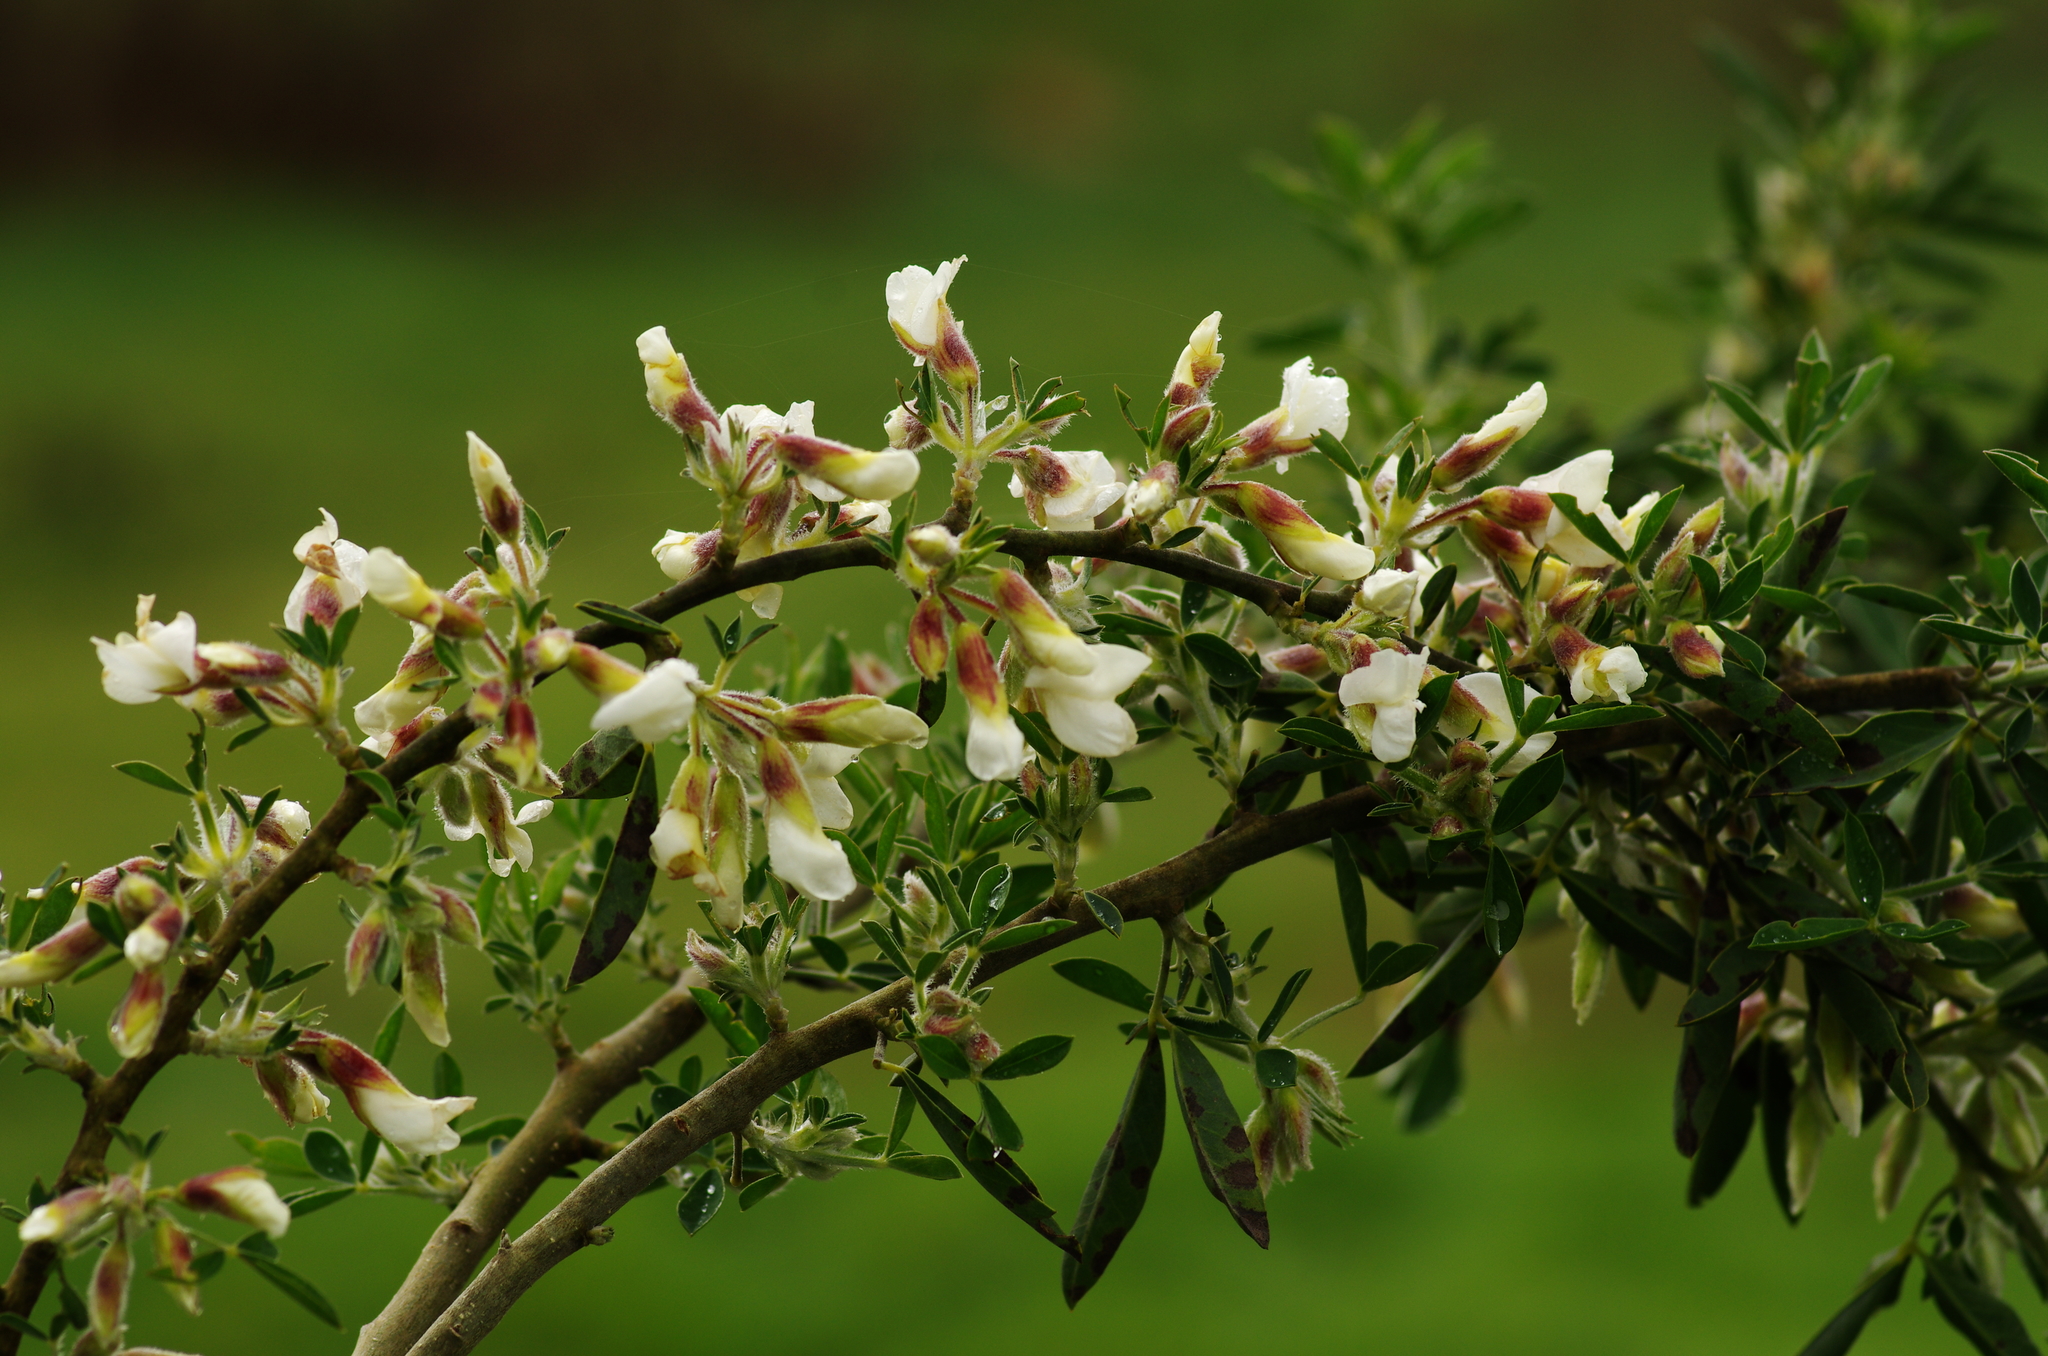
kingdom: Plantae
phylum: Tracheophyta
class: Magnoliopsida
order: Fabales
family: Fabaceae
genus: Chamaecytisus
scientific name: Chamaecytisus prolifer
